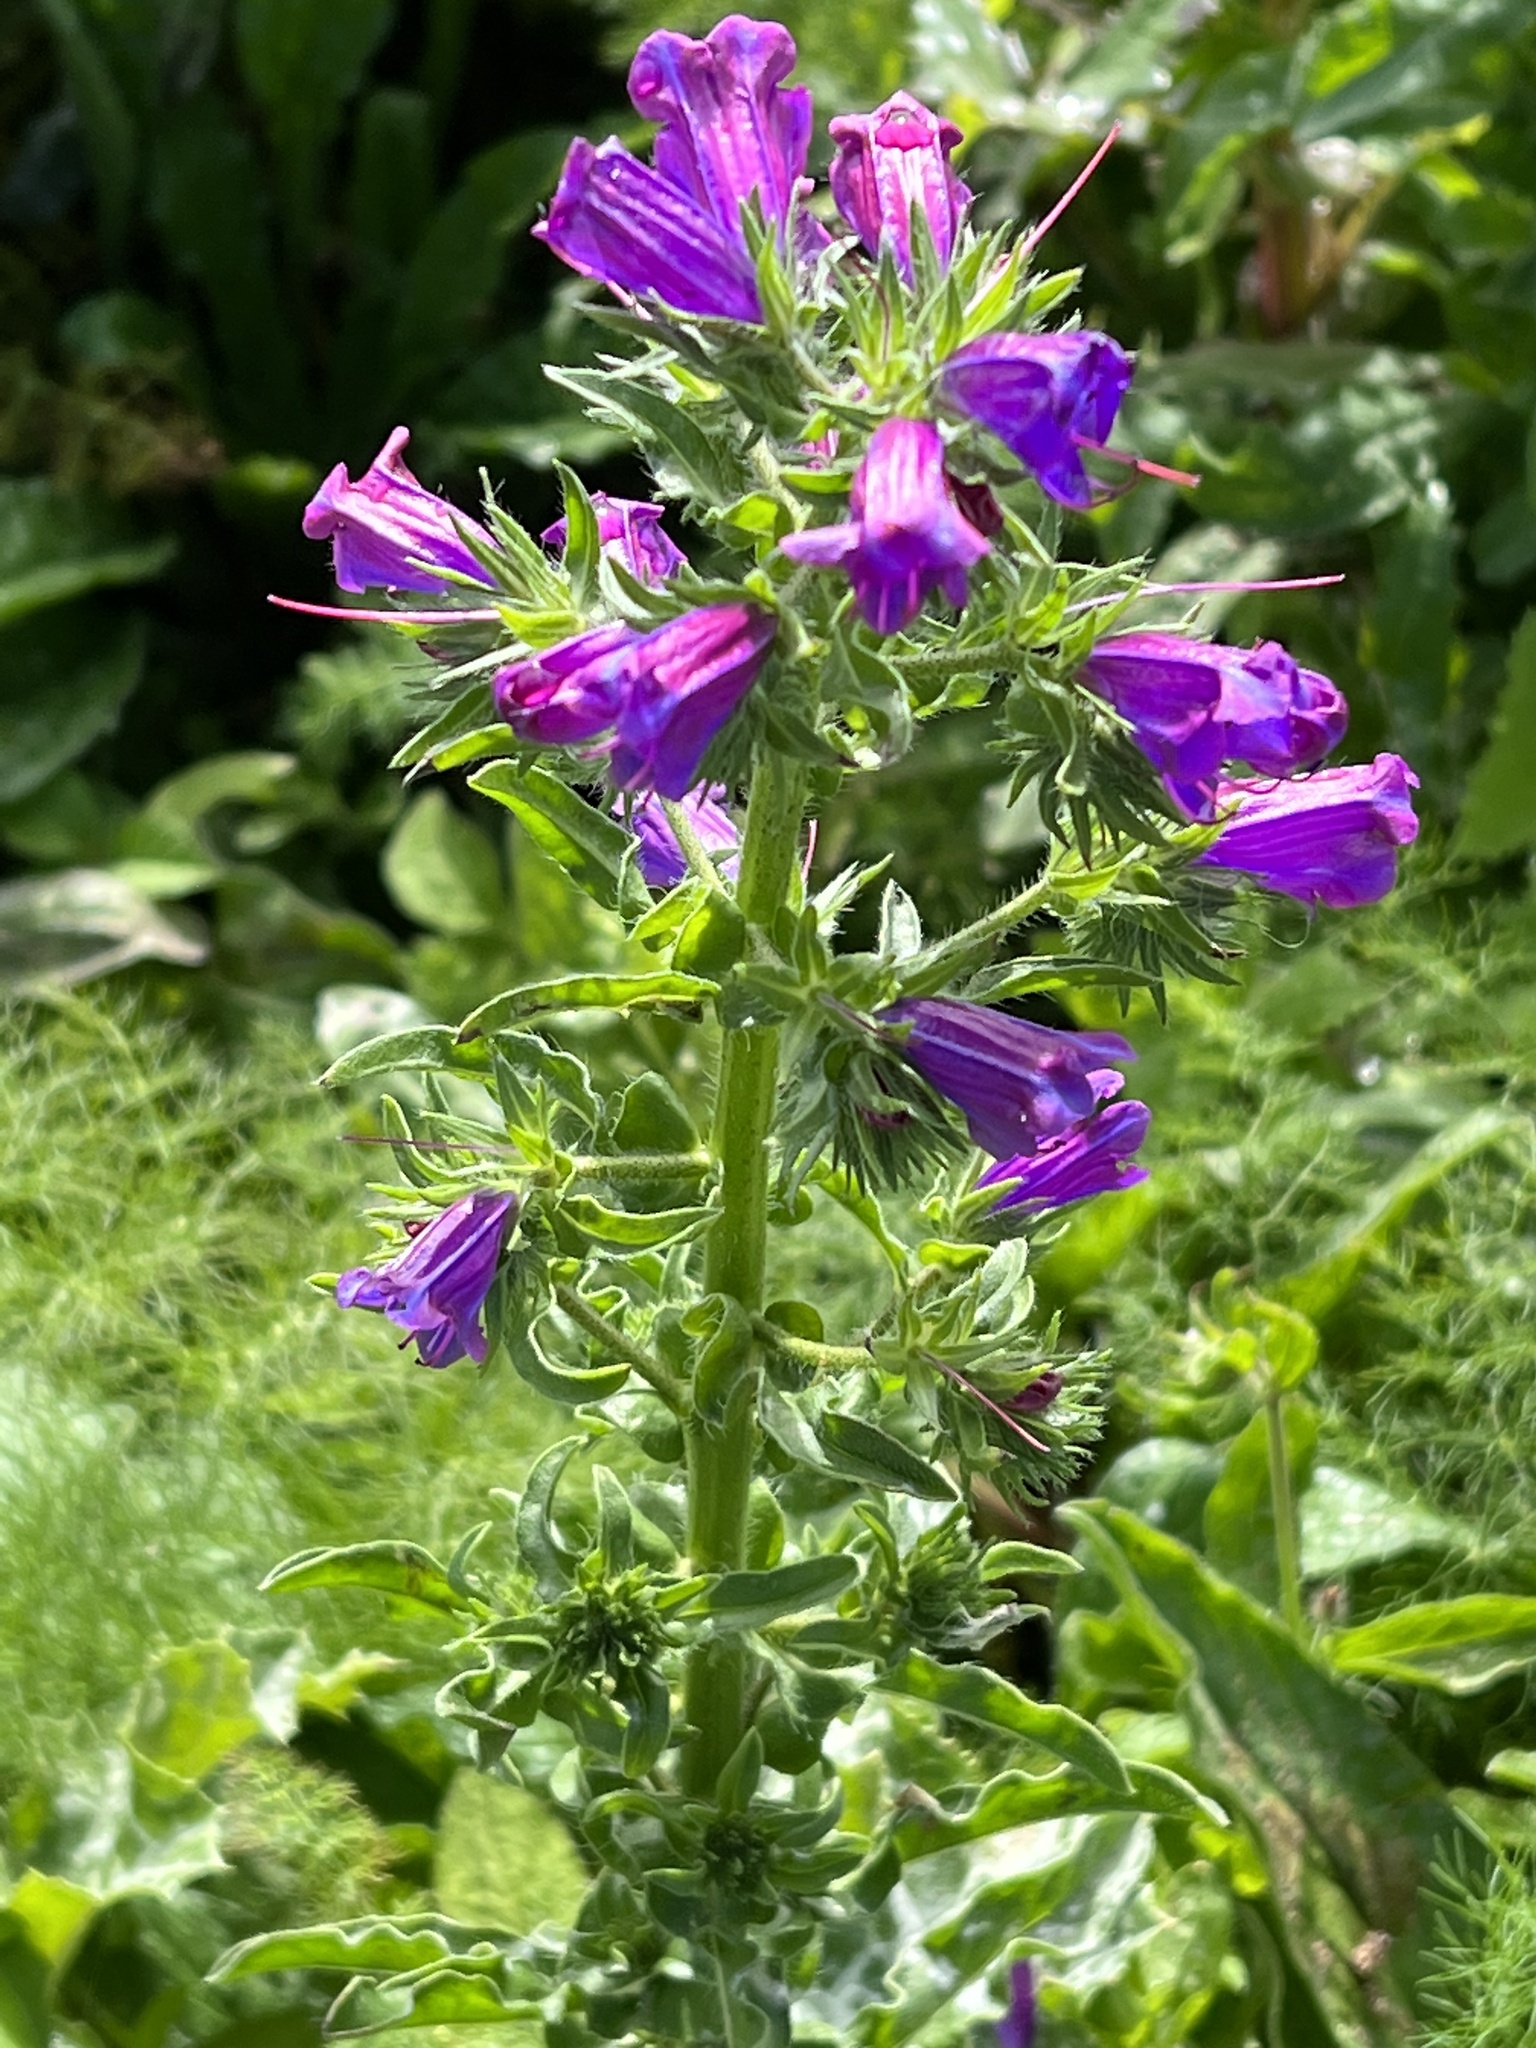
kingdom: Plantae
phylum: Tracheophyta
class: Magnoliopsida
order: Boraginales
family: Boraginaceae
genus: Echium
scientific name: Echium plantagineum
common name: Purple viper's-bugloss
